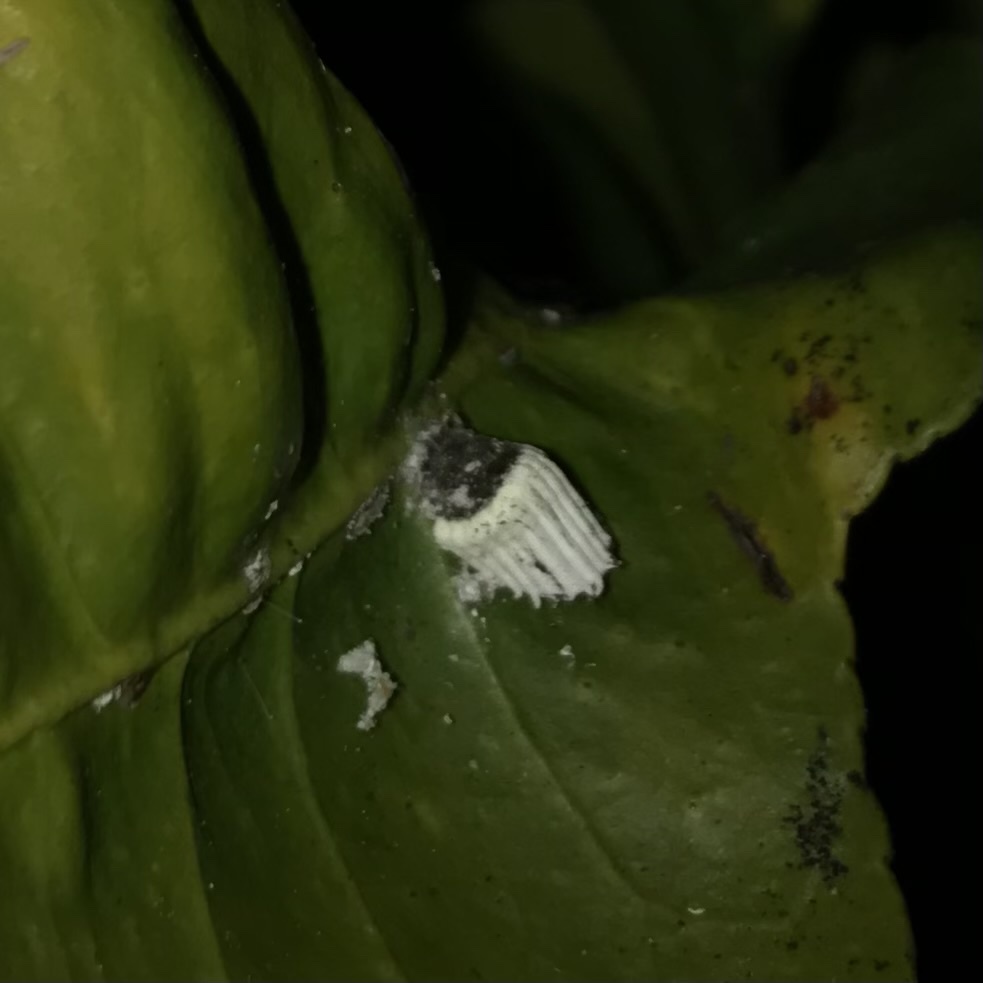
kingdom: Animalia
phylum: Arthropoda
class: Insecta
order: Hemiptera
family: Margarodidae
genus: Icerya
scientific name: Icerya purchasi
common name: Cottony cushion scale
